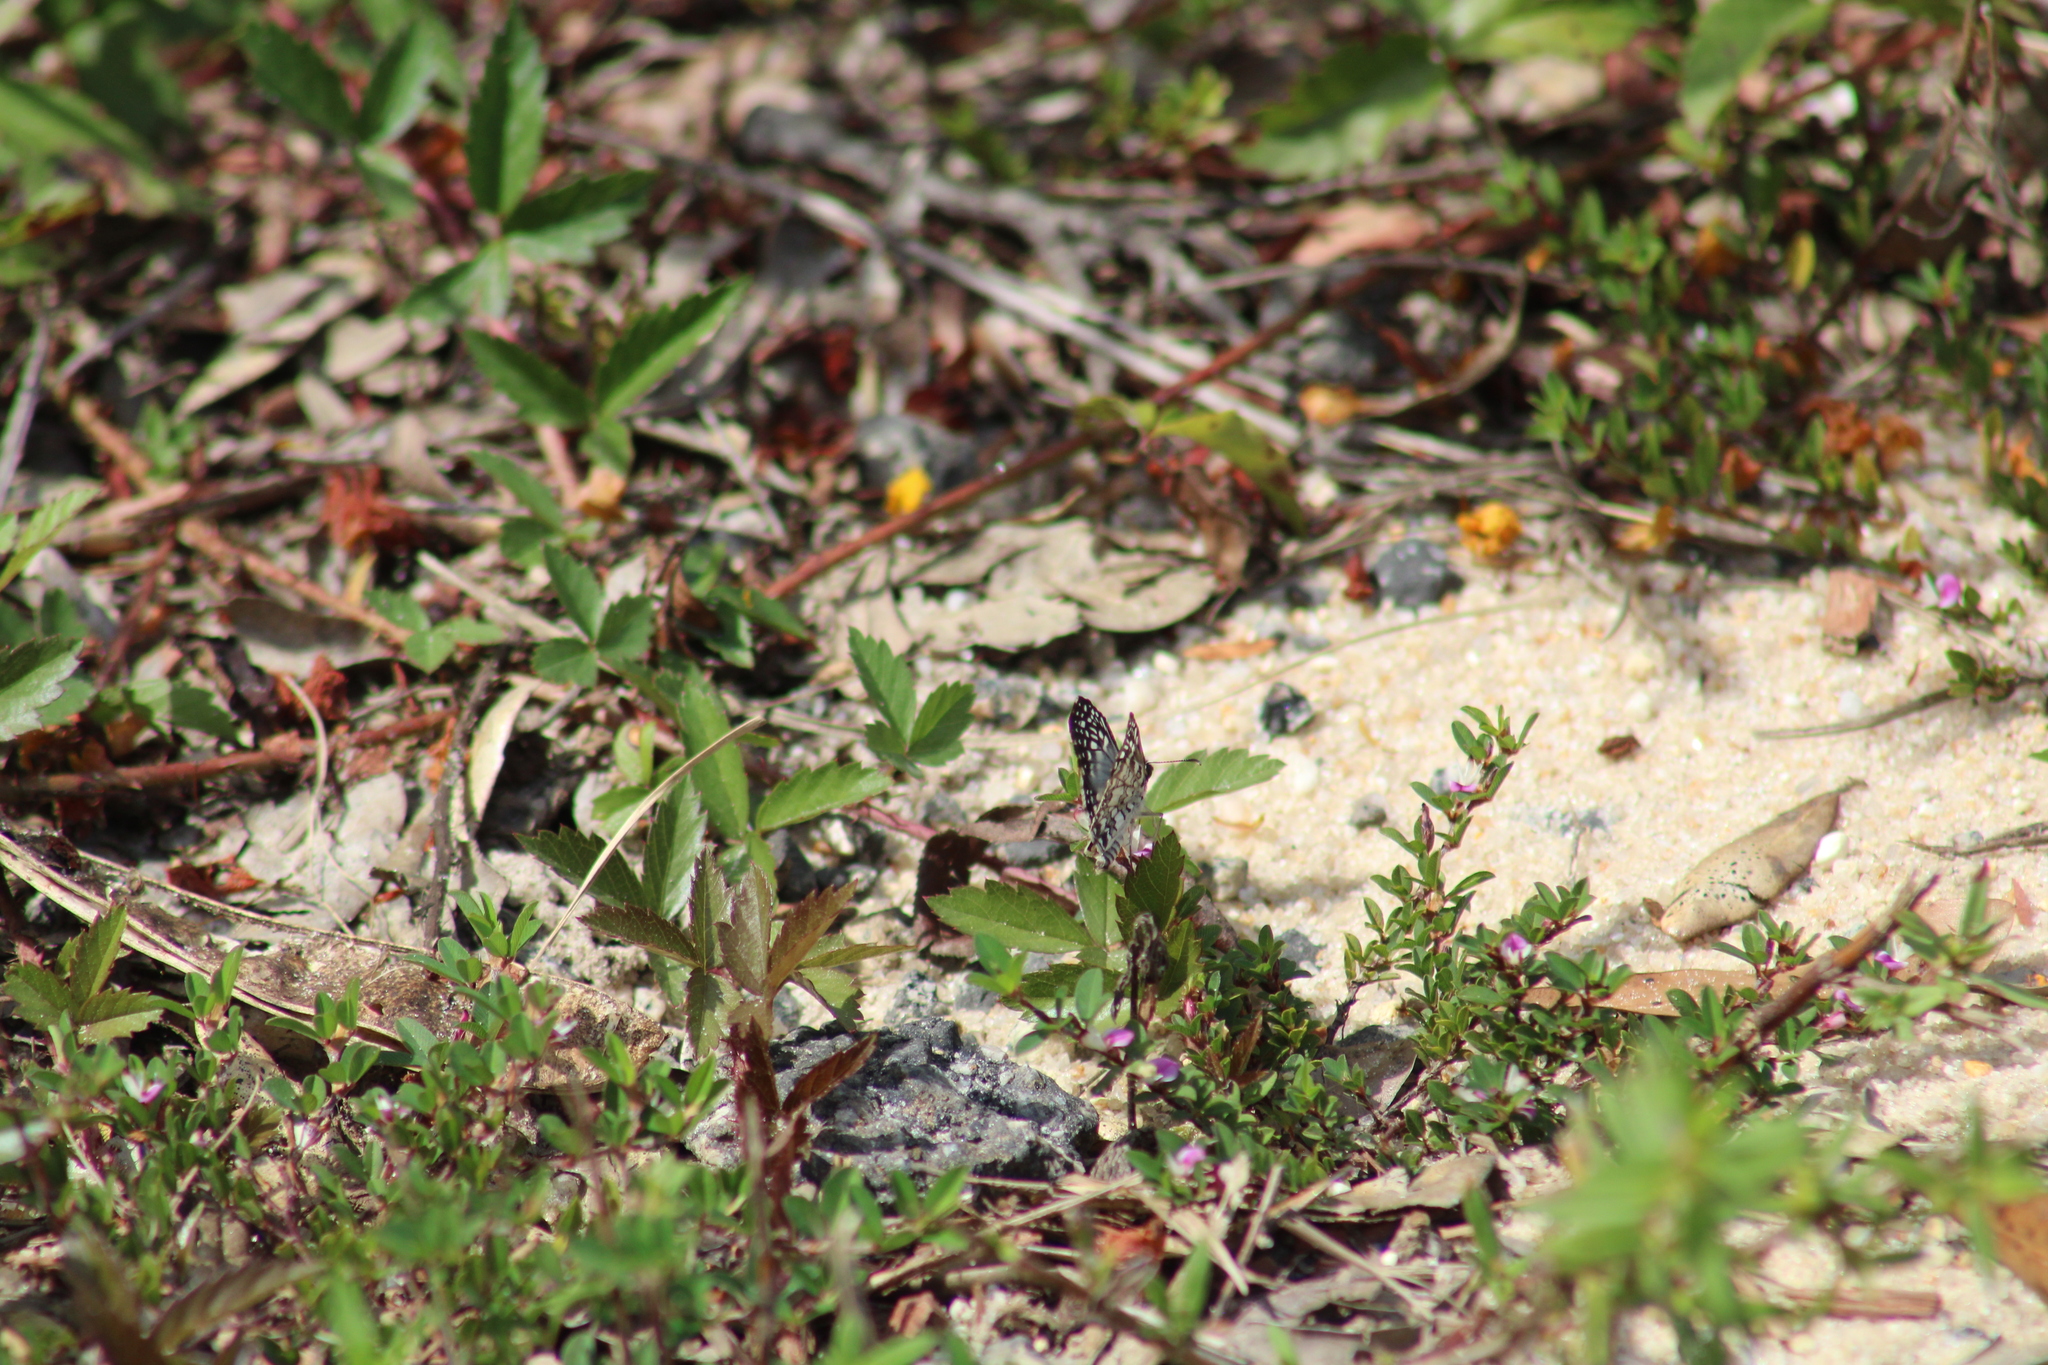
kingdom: Animalia
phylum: Arthropoda
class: Insecta
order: Lepidoptera
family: Hesperiidae
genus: Pyrgus
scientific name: Pyrgus oileus
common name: Tropical checkered-skipper
